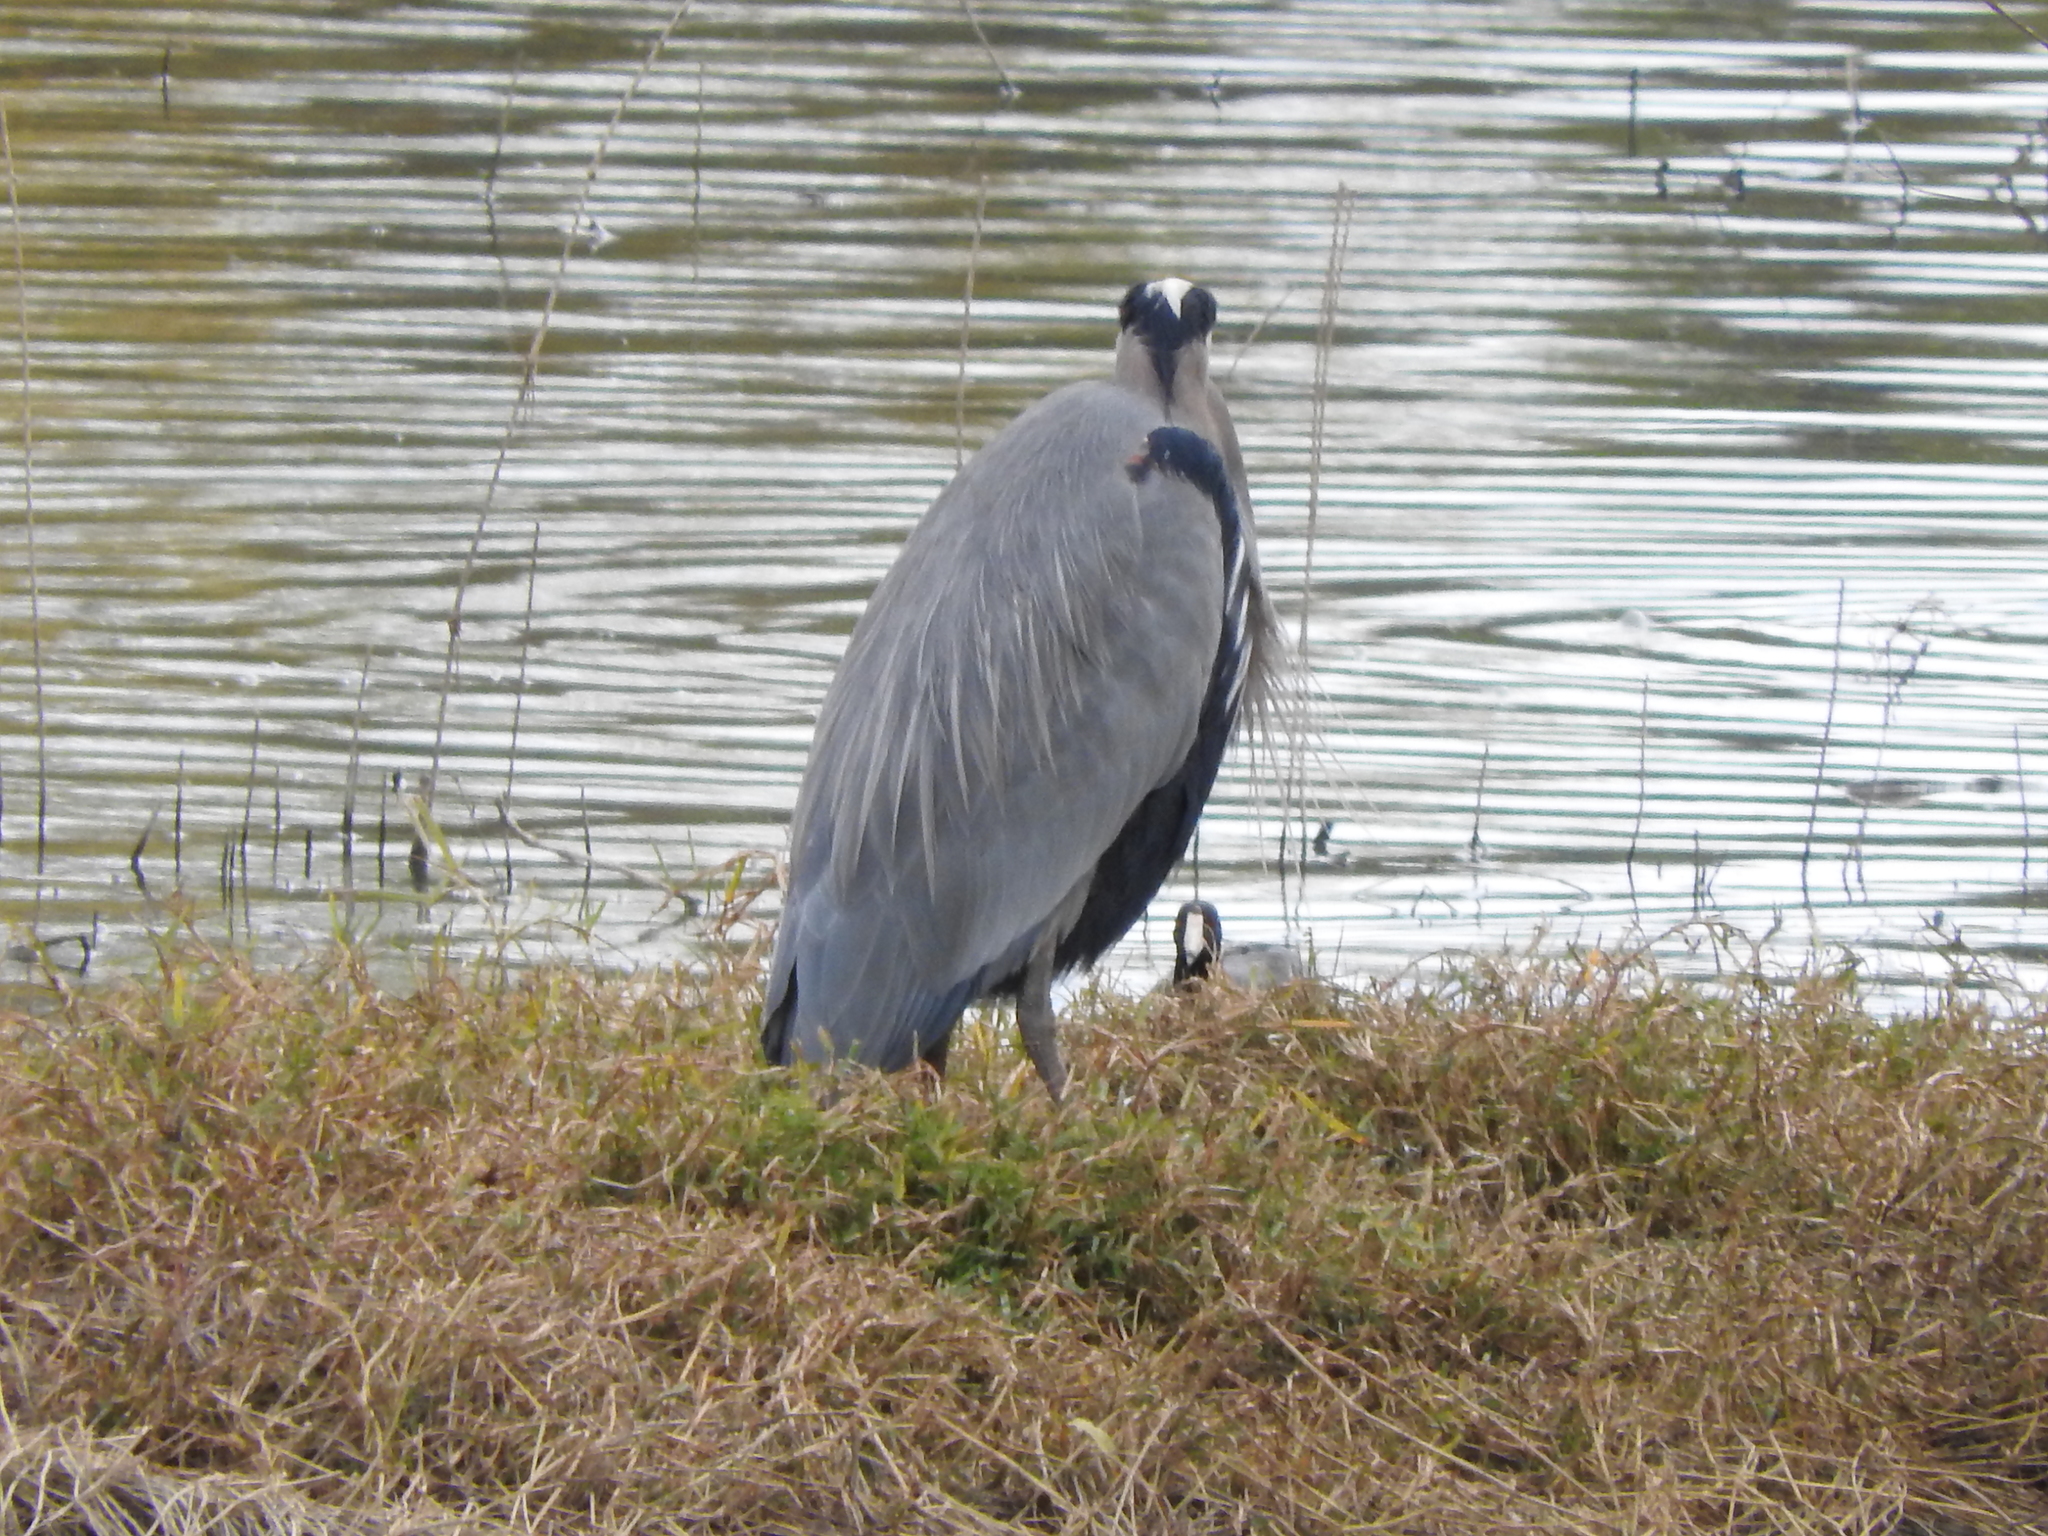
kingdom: Animalia
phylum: Chordata
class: Aves
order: Pelecaniformes
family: Ardeidae
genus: Ardea
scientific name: Ardea herodias
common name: Great blue heron
